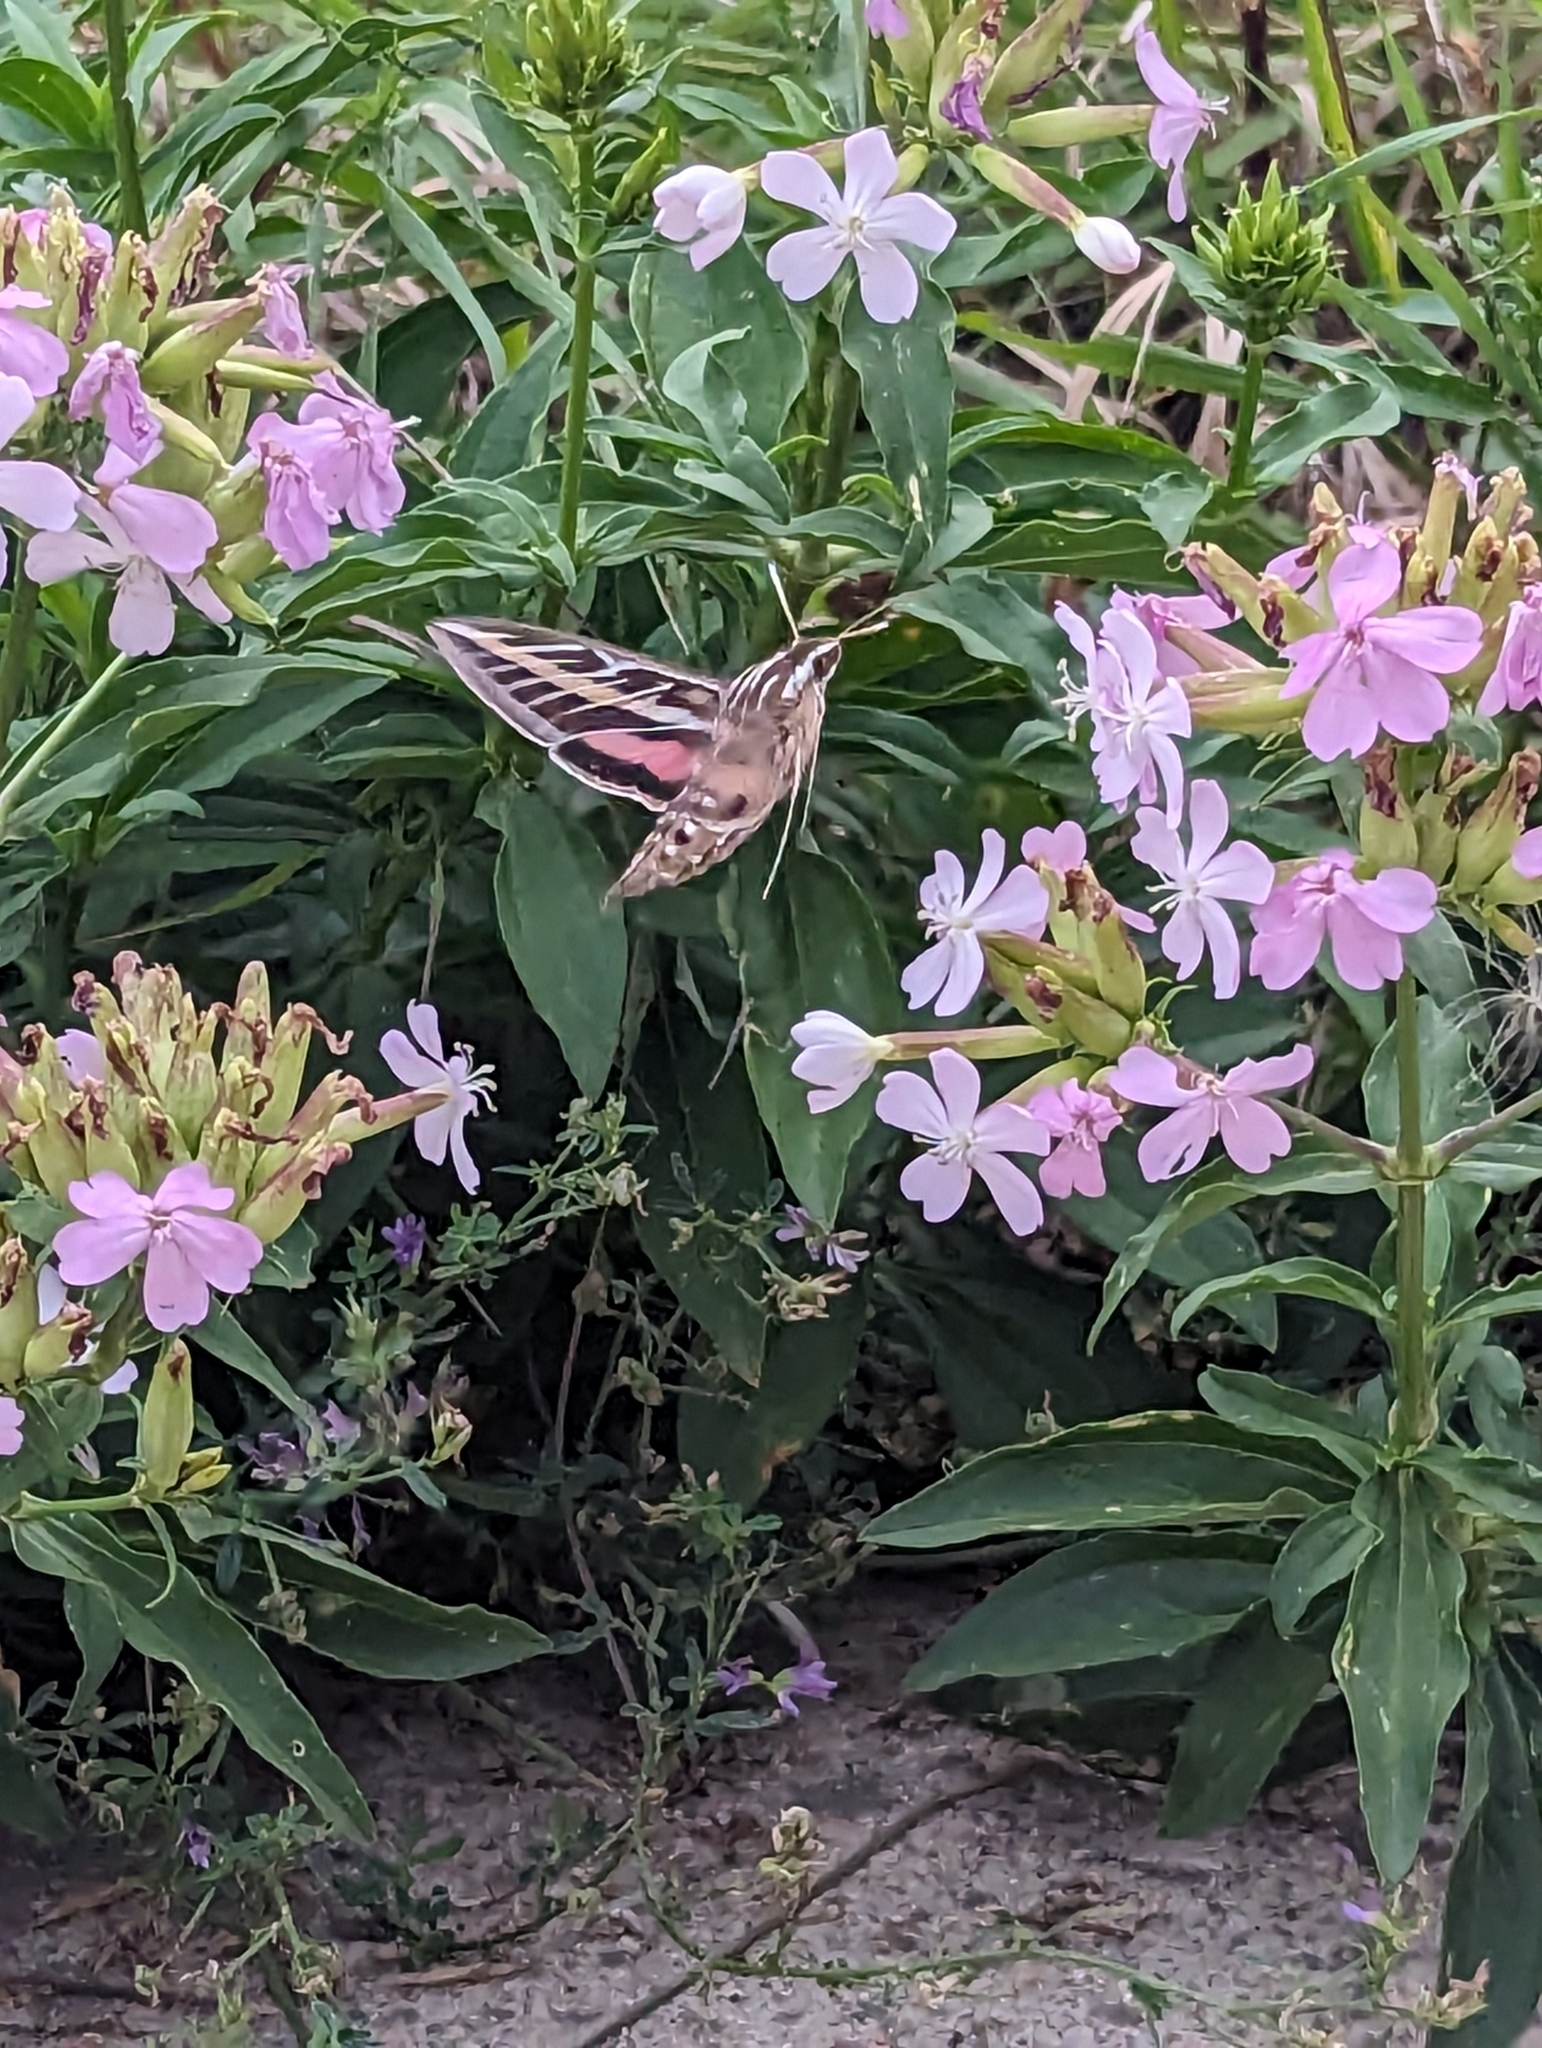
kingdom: Animalia
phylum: Arthropoda
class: Insecta
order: Lepidoptera
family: Sphingidae
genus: Hyles
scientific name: Hyles lineata
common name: White-lined sphinx
